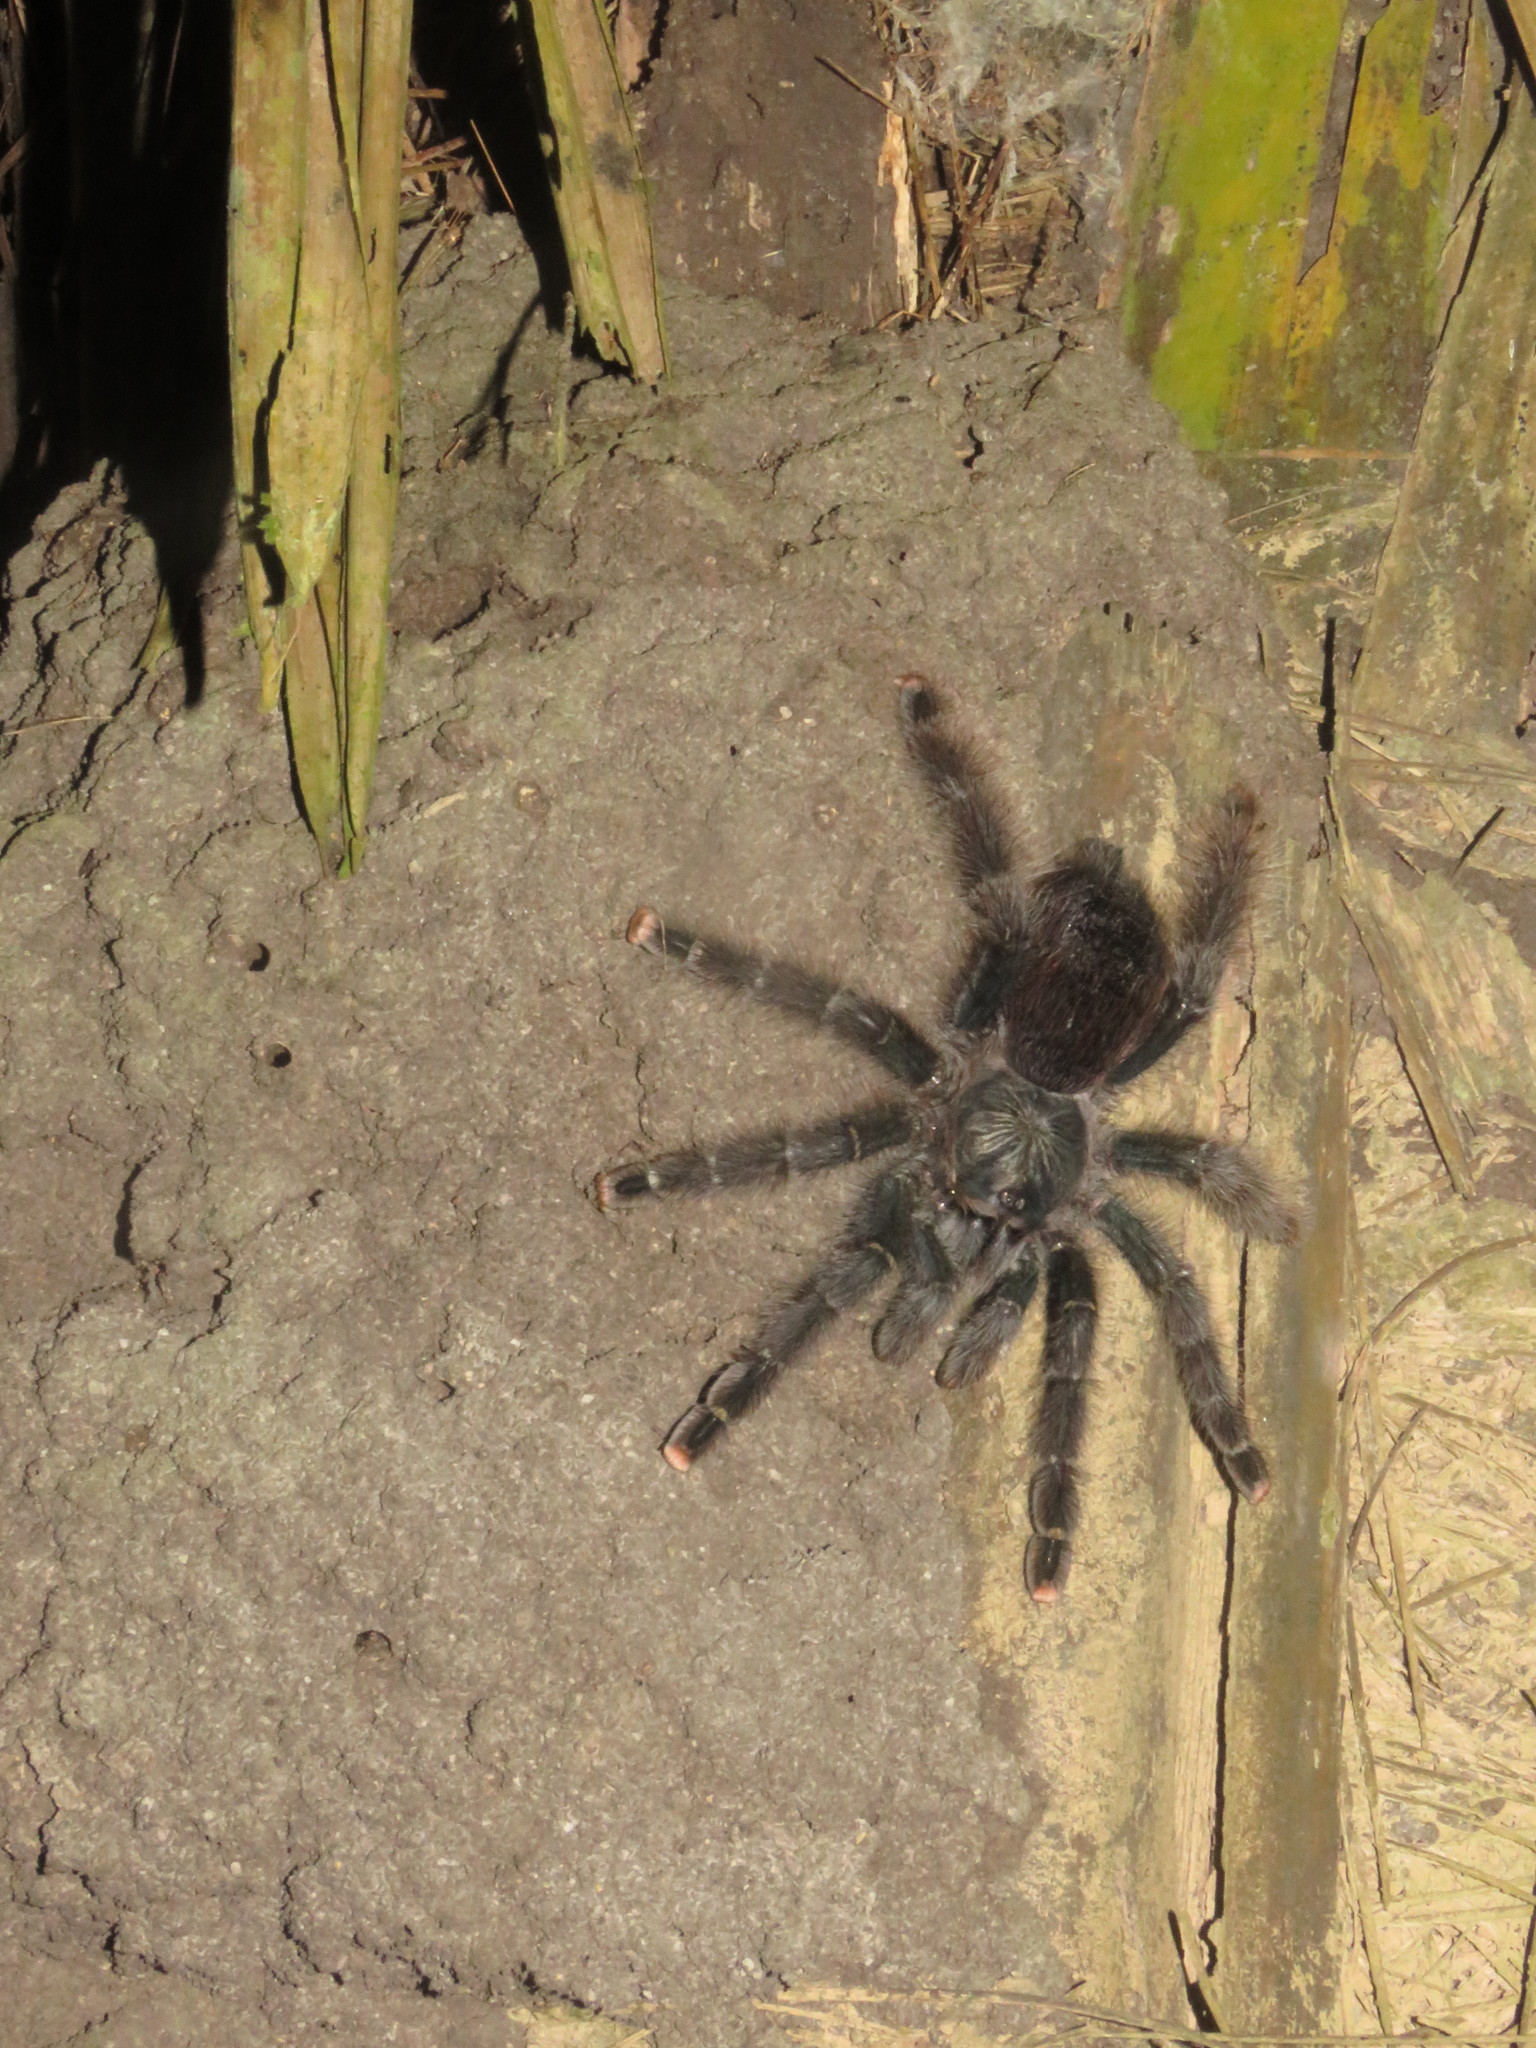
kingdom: Animalia
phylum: Arthropoda
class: Arachnida
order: Araneae
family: Theraphosidae
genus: Avicularia
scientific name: Avicularia avicularia
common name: Tarantula spiders
